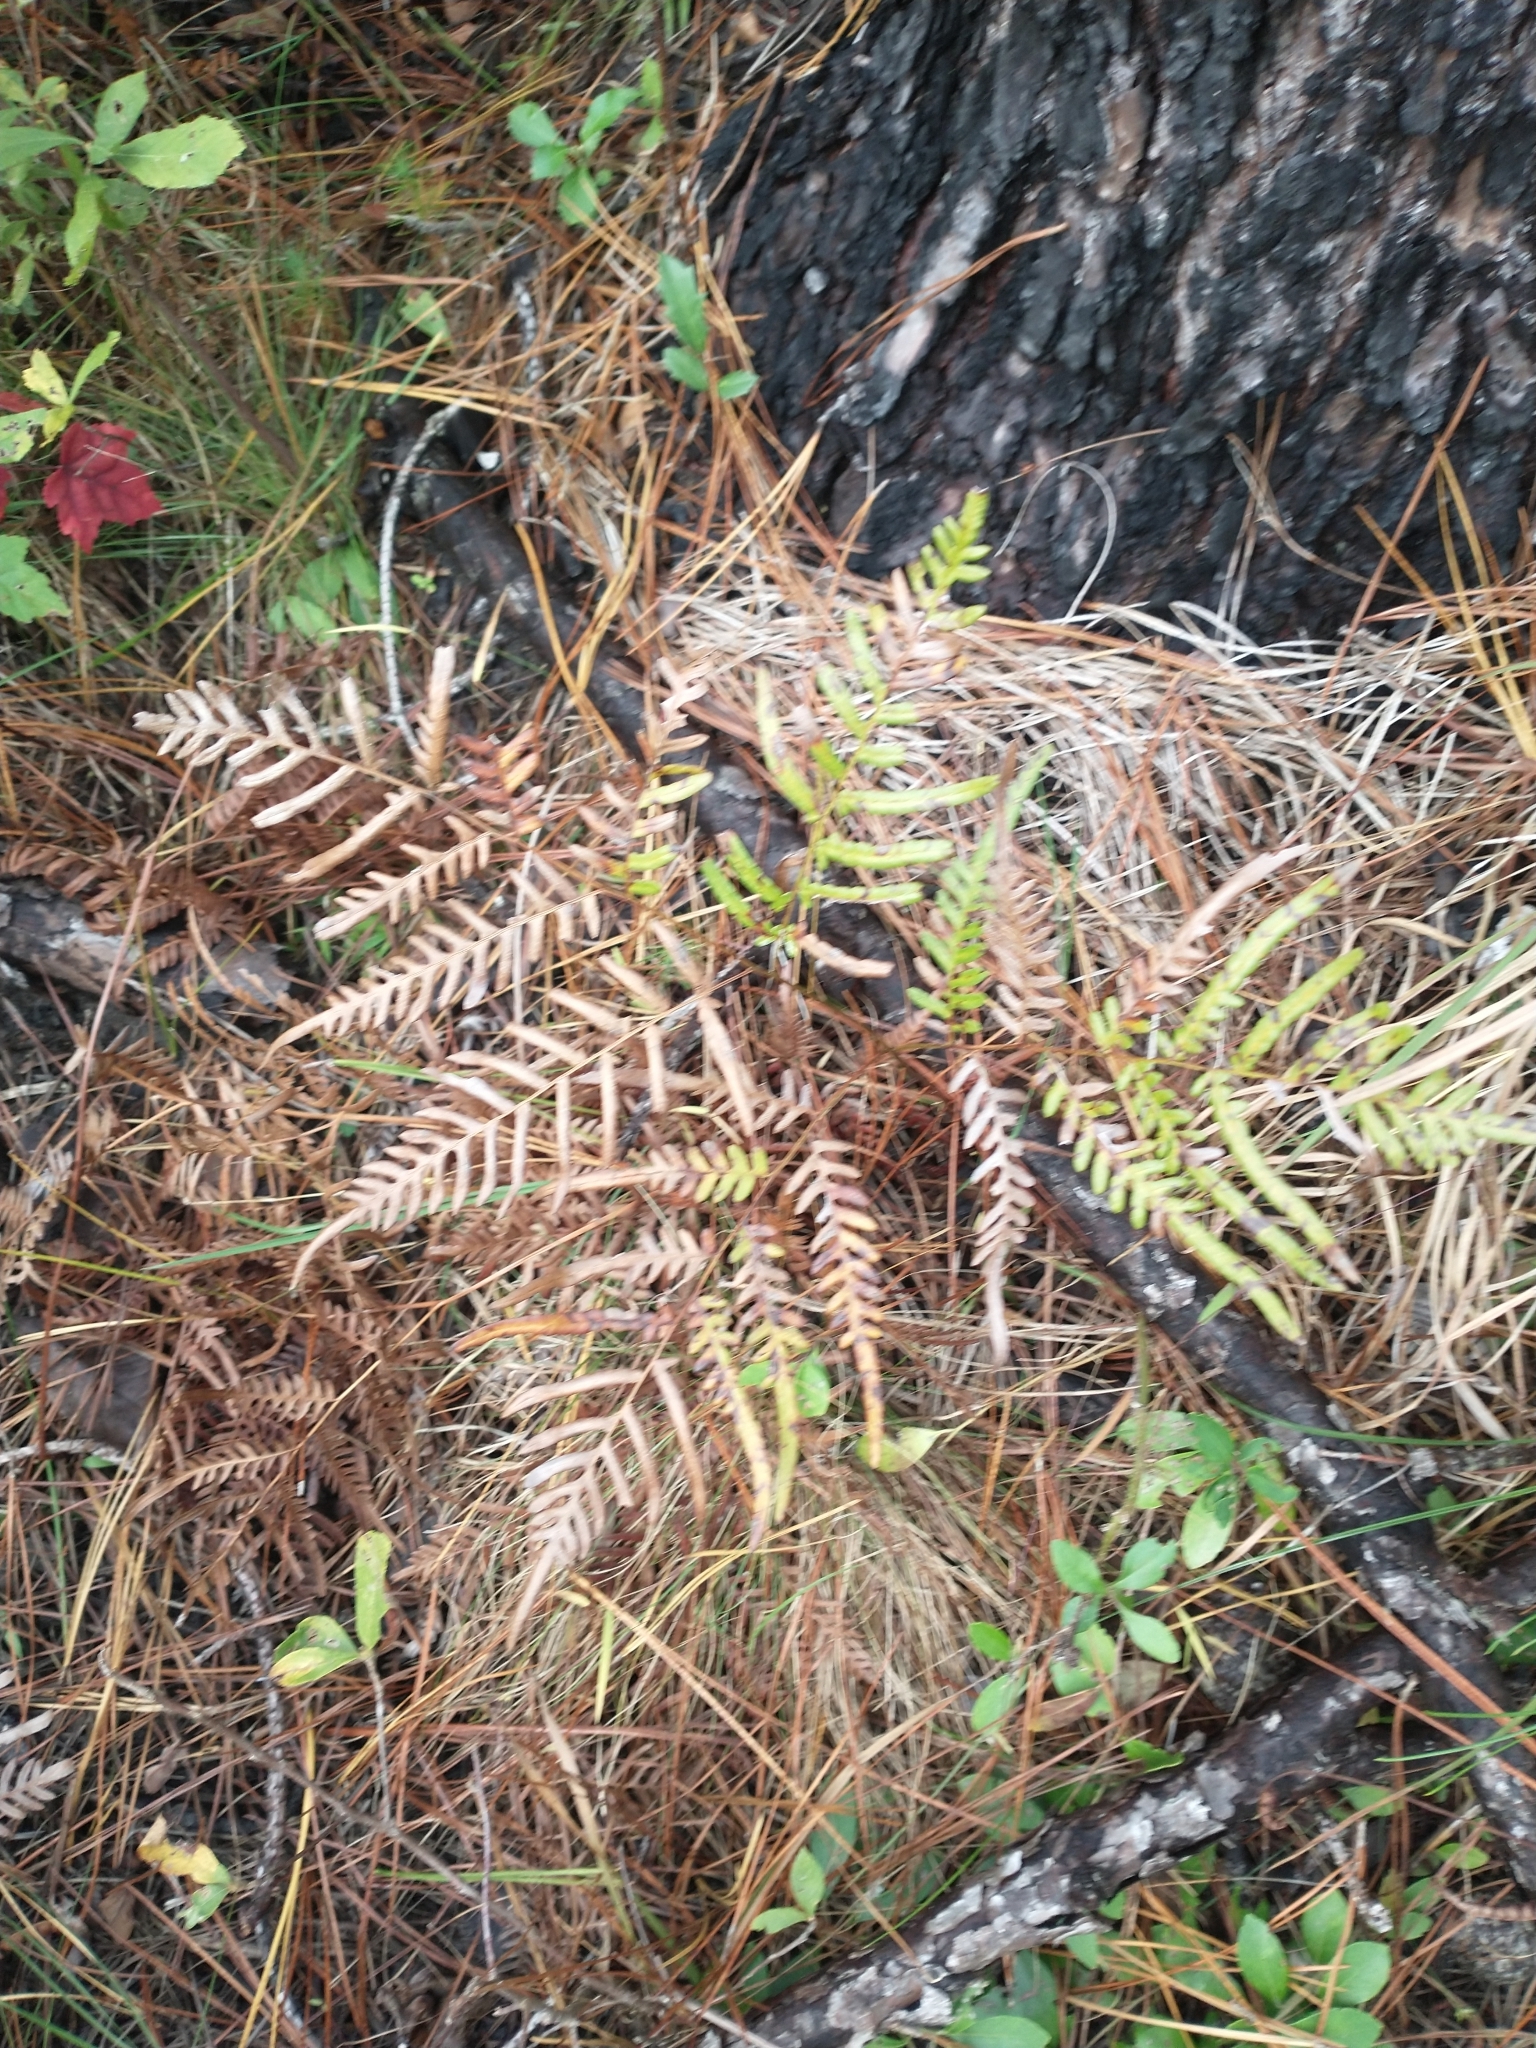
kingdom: Plantae
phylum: Tracheophyta
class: Polypodiopsida
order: Polypodiales
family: Dennstaedtiaceae
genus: Pteridium
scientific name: Pteridium aquilinum
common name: Bracken
